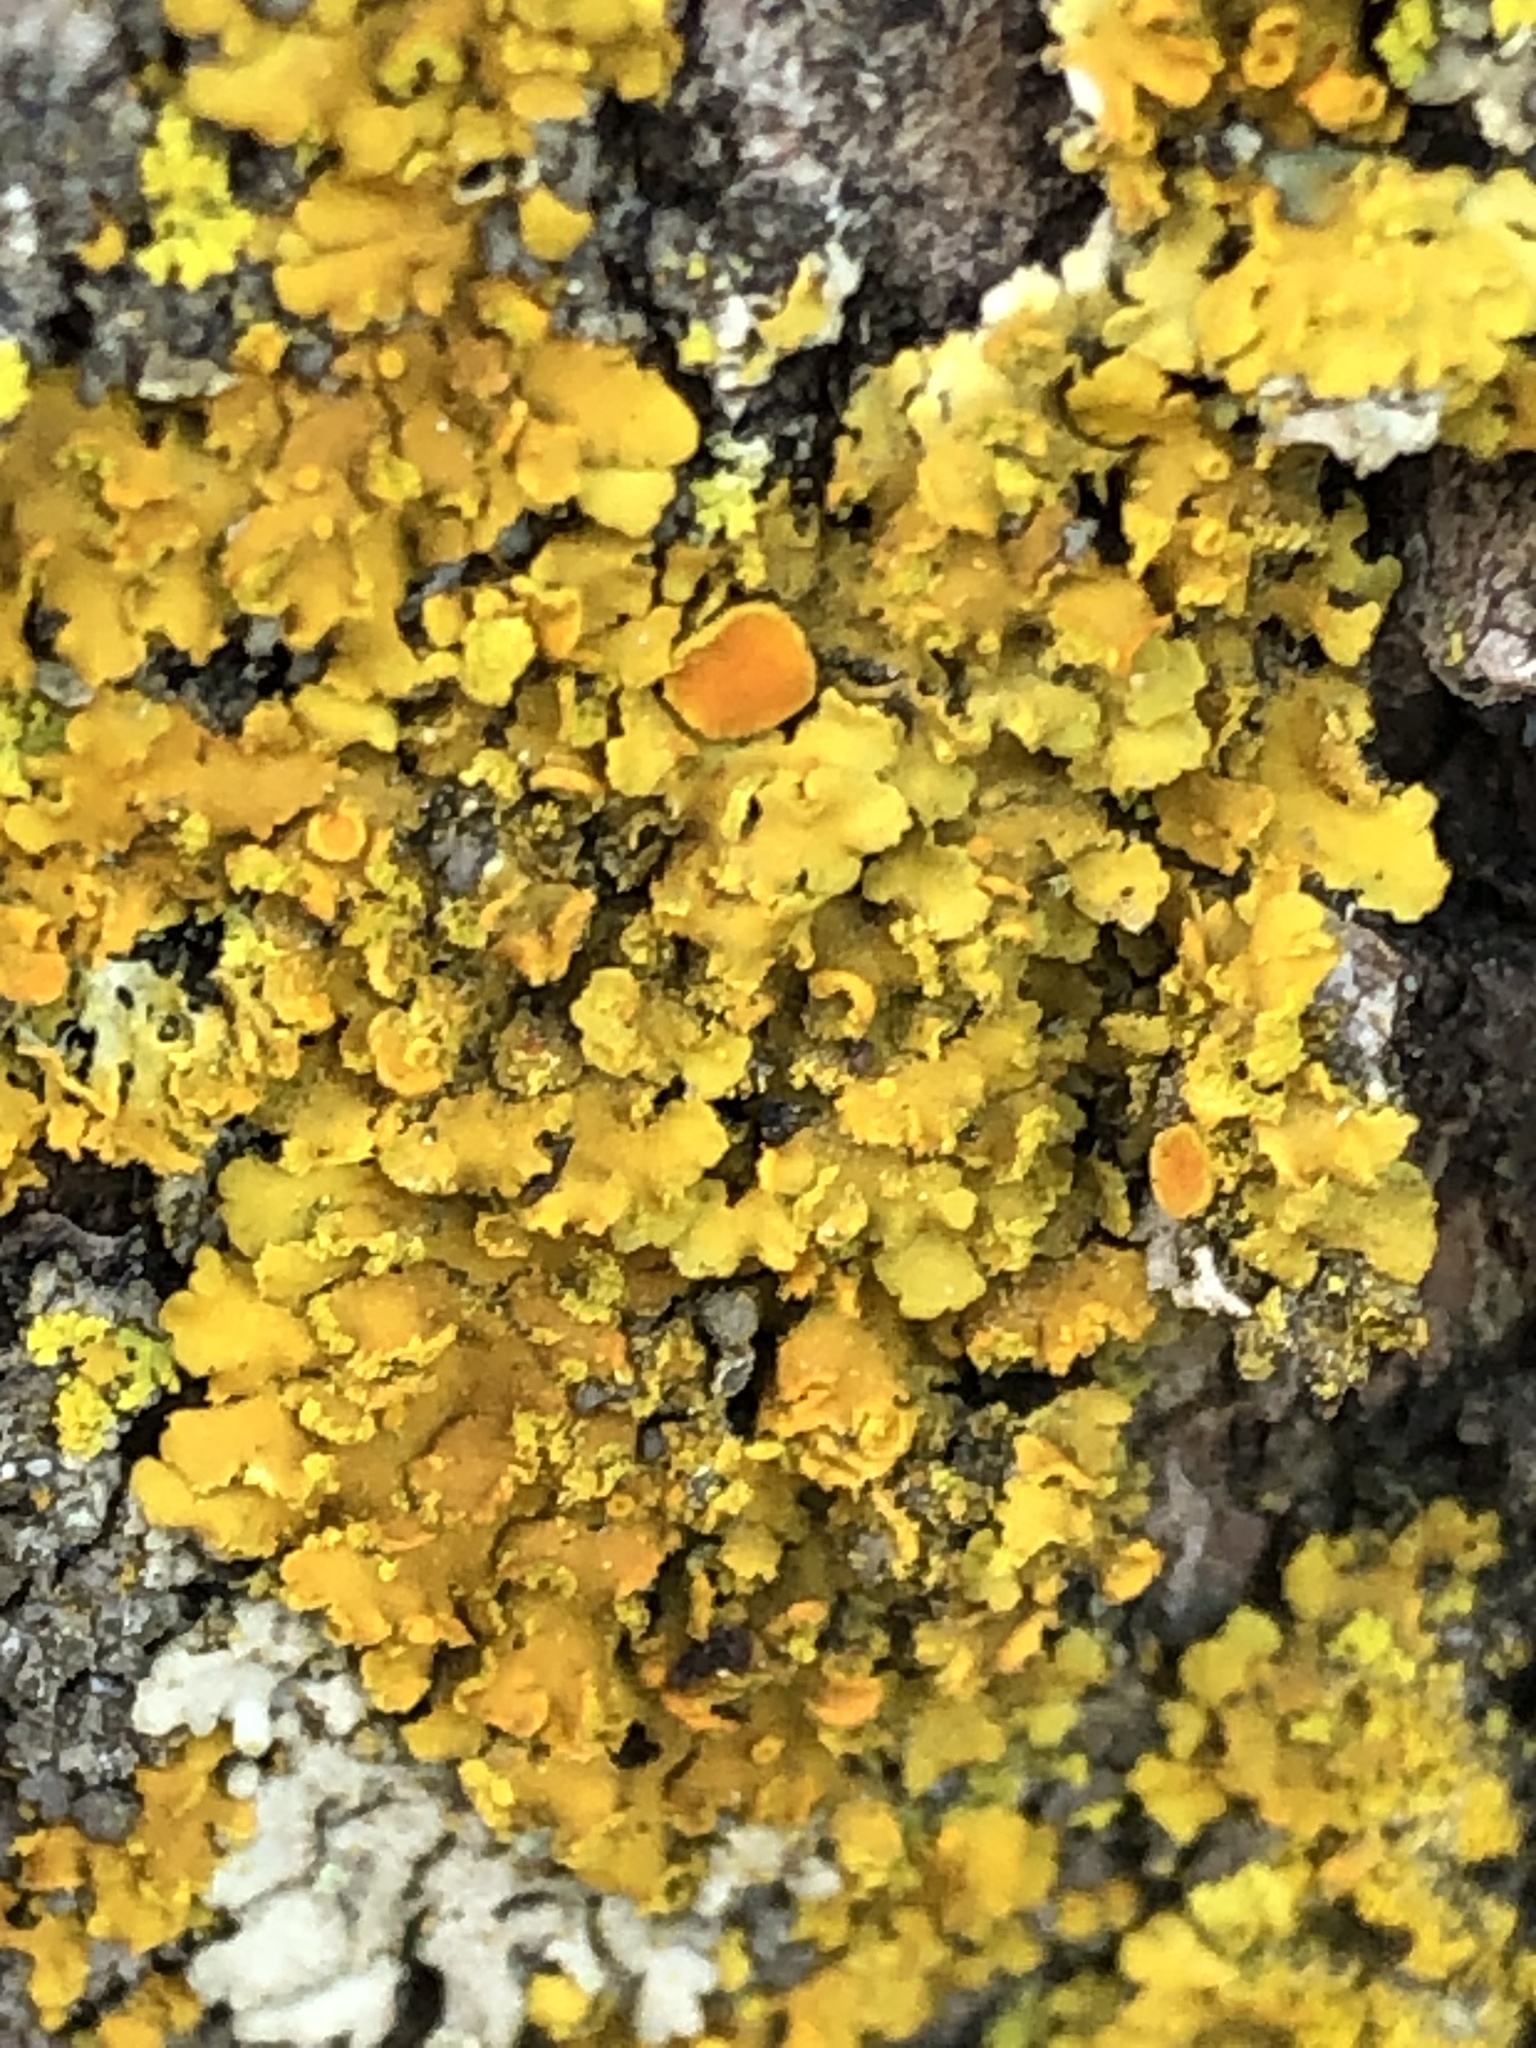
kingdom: Fungi
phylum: Ascomycota
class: Lecanoromycetes
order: Teloschistales
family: Teloschistaceae
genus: Oxneria
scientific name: Oxneria fallax
